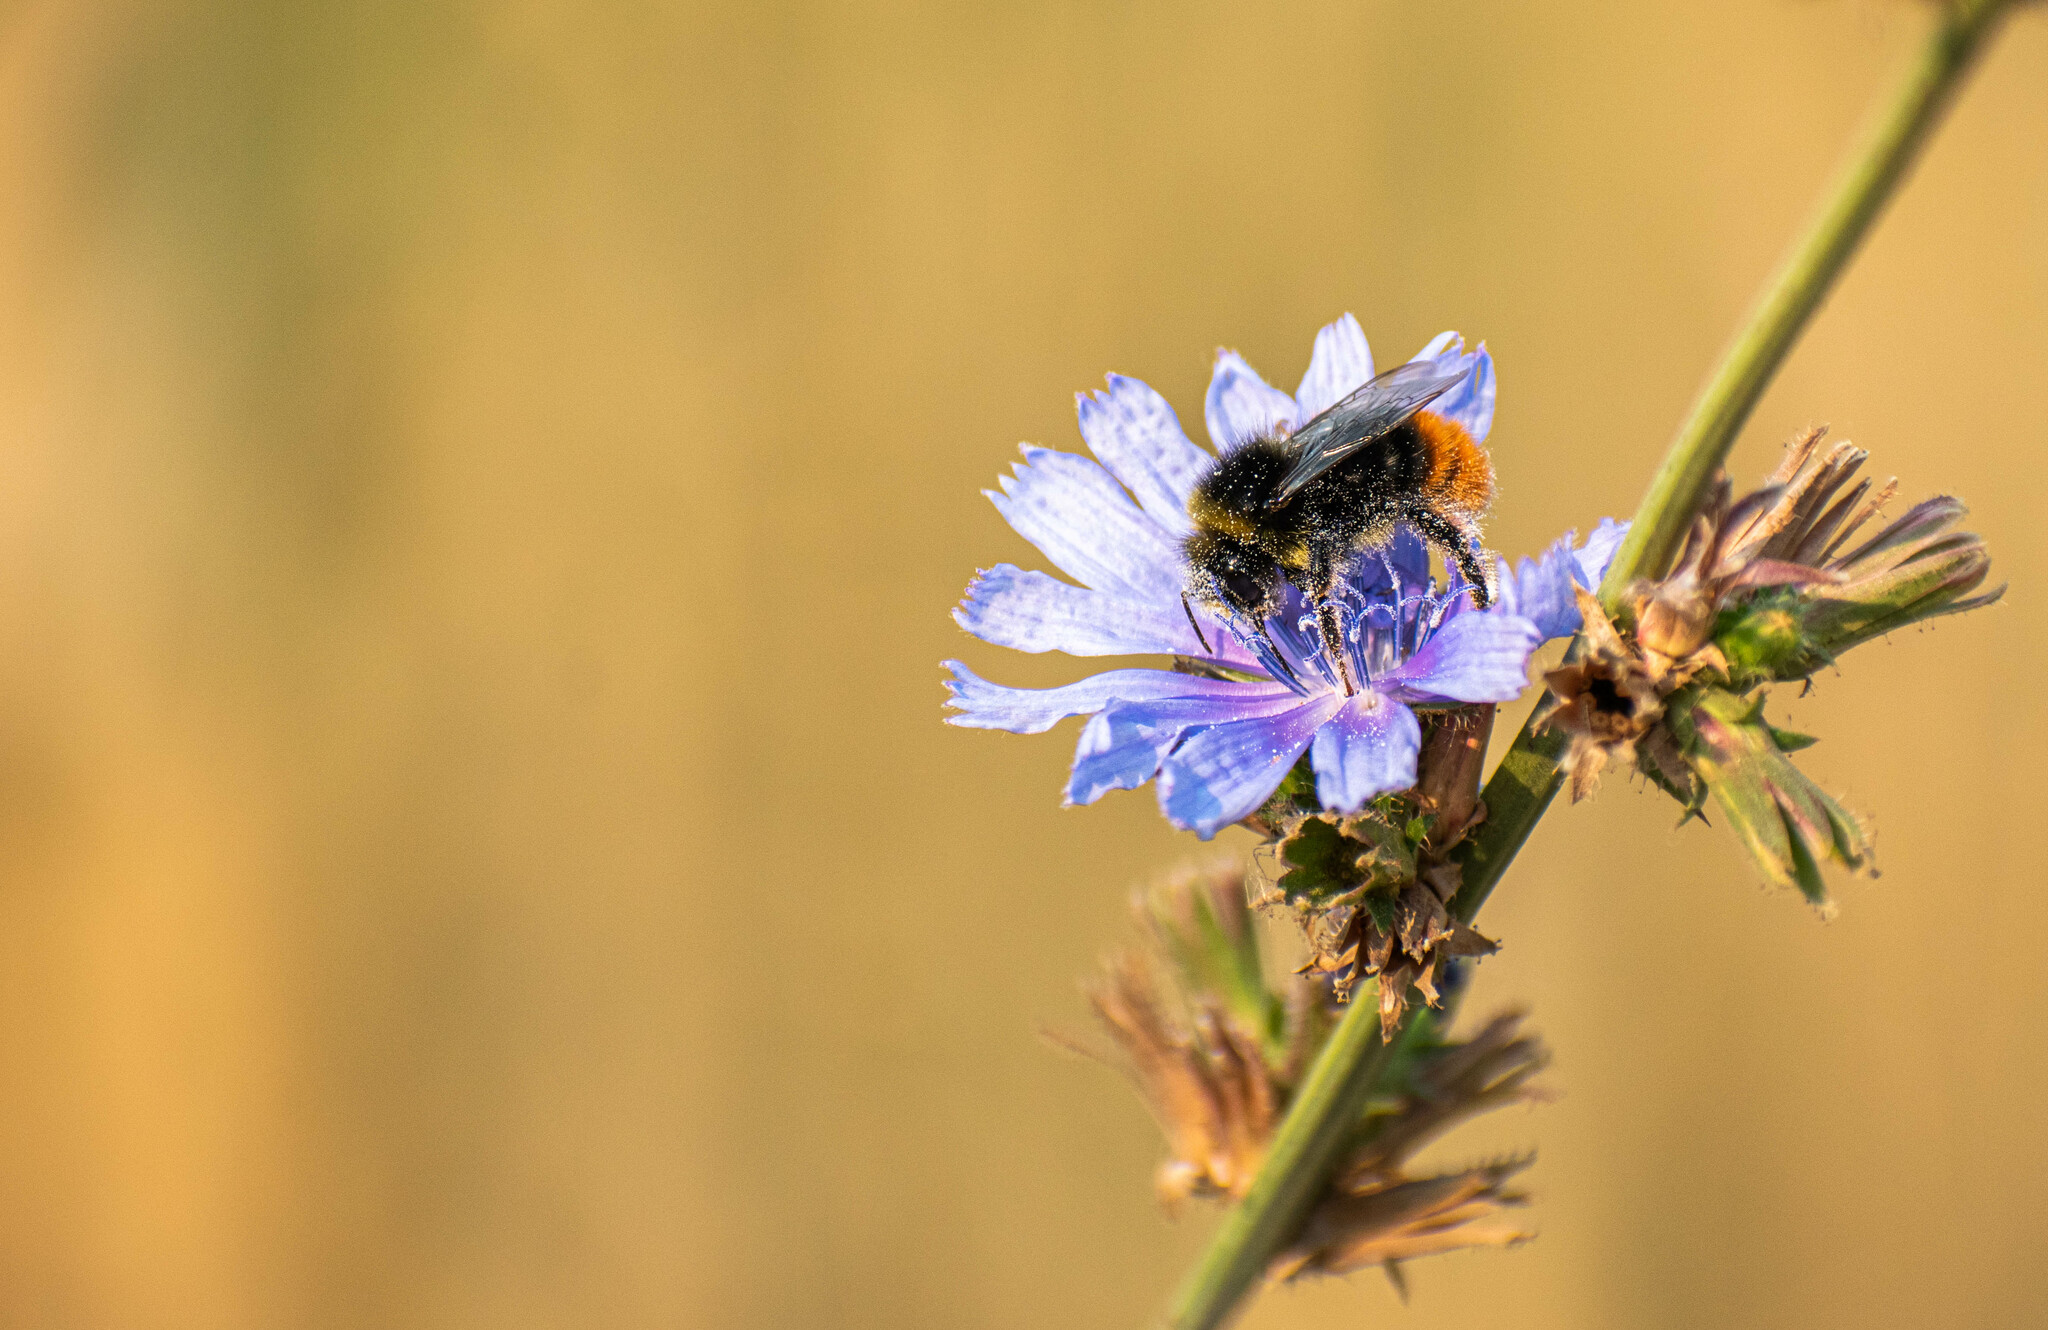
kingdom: Animalia
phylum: Arthropoda
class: Insecta
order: Hymenoptera
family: Apidae
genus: Bombus
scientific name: Bombus lapidarius
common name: Large red-tailed humble-bee
